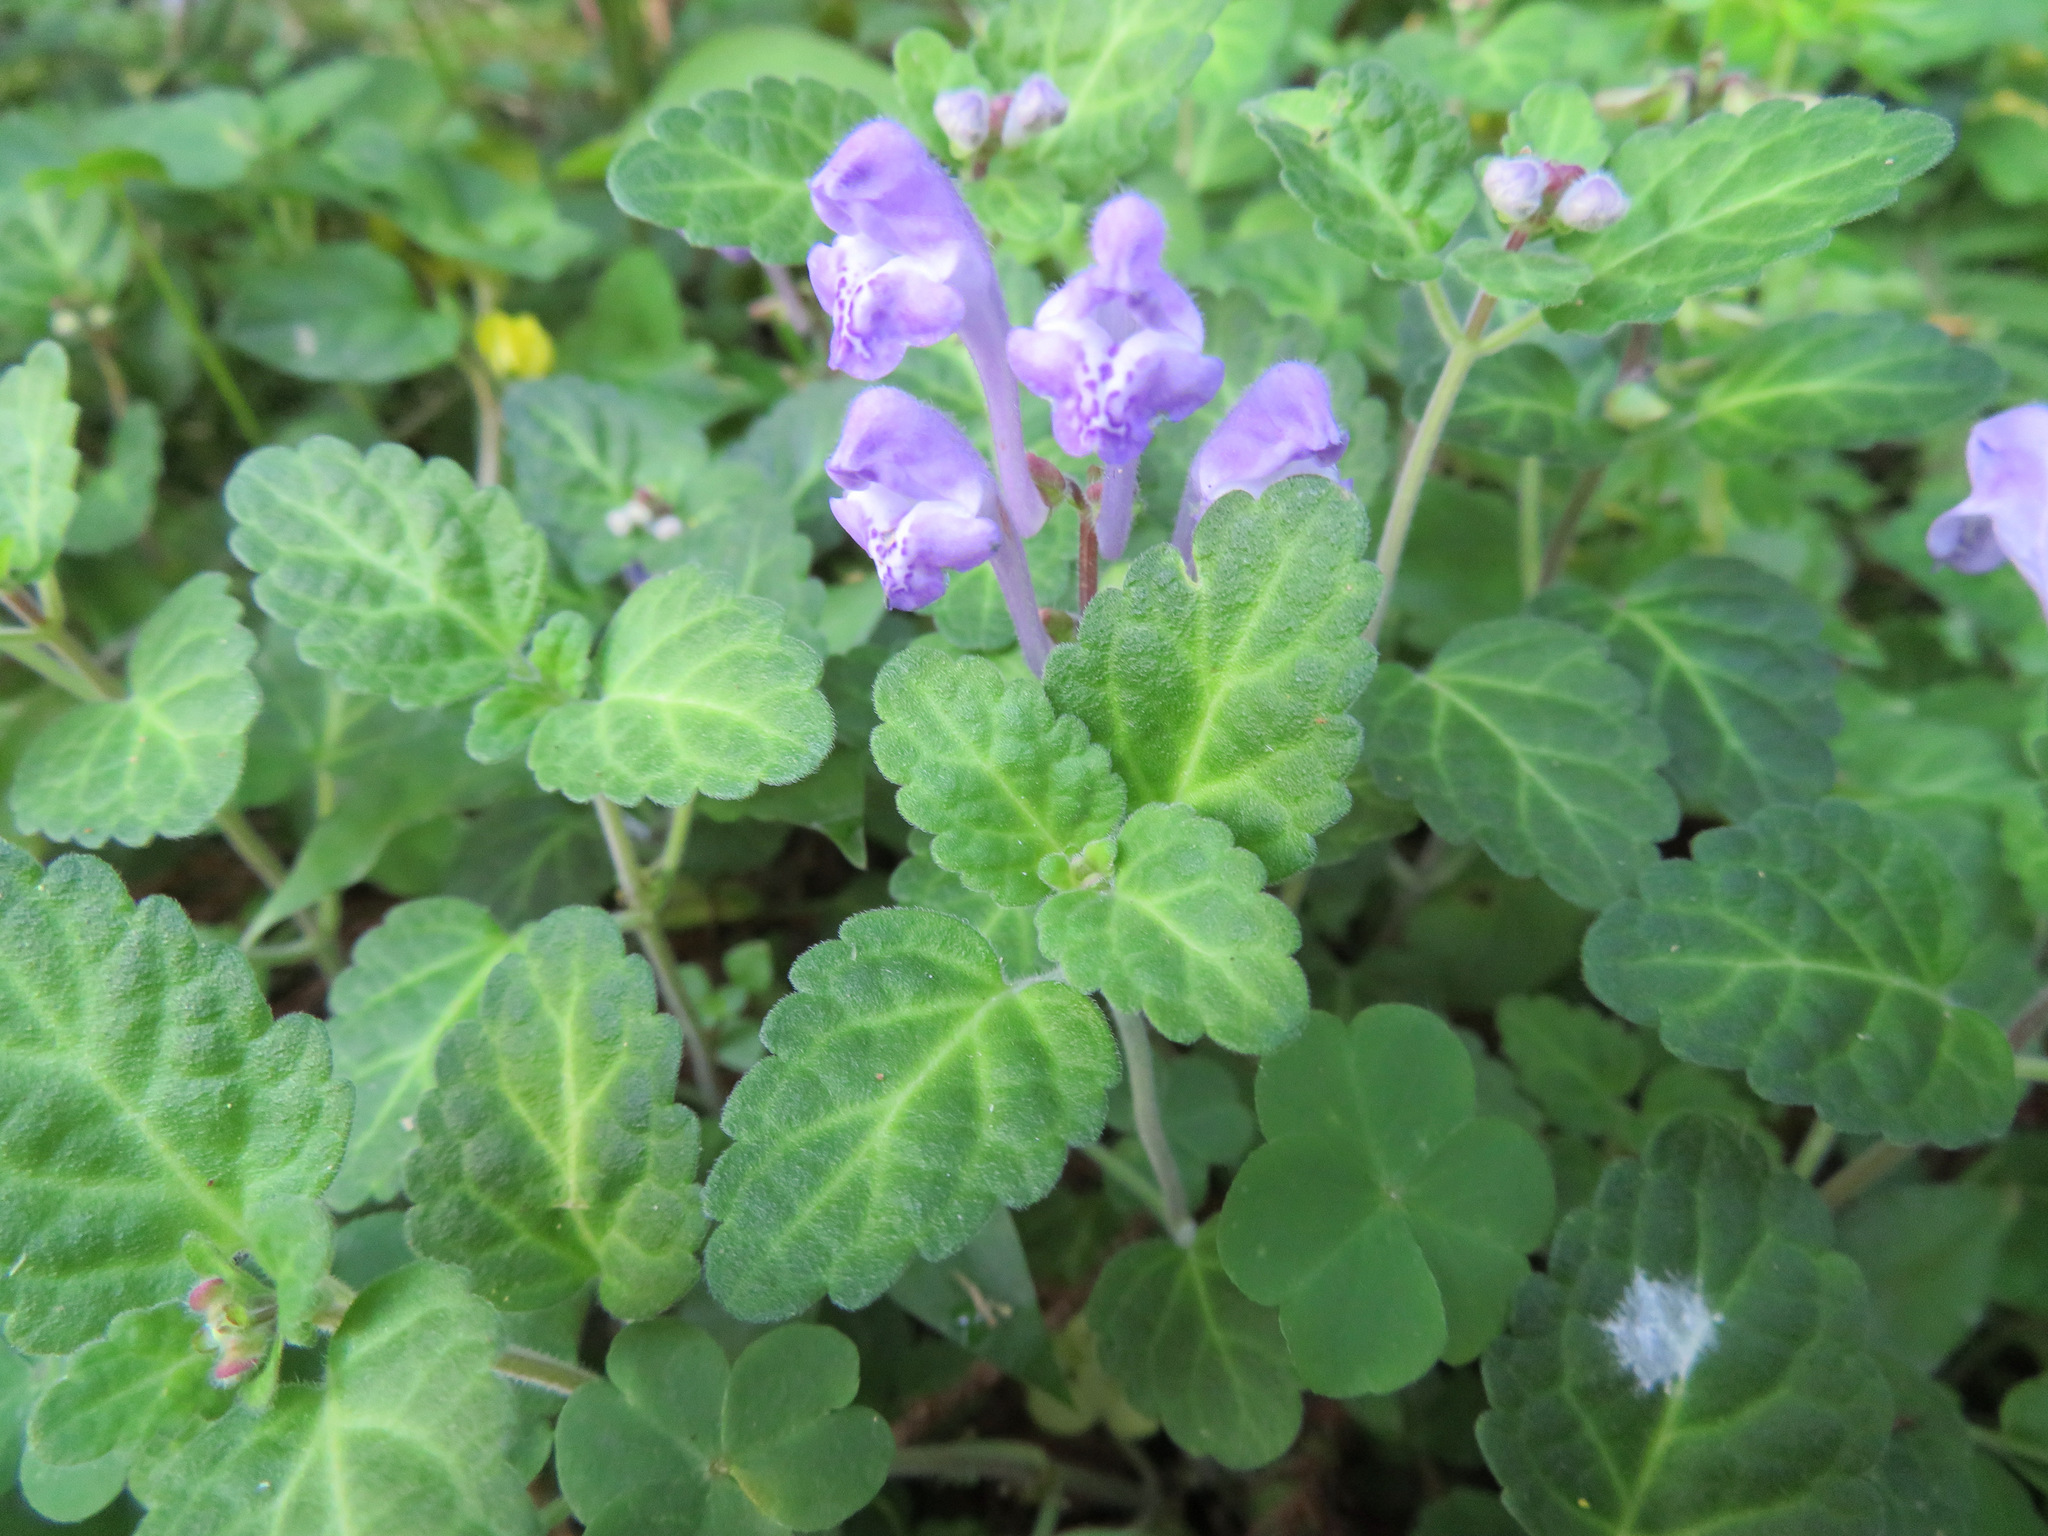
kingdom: Plantae
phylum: Tracheophyta
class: Magnoliopsida
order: Lamiales
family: Lamiaceae
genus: Scutellaria
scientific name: Scutellaria indica
